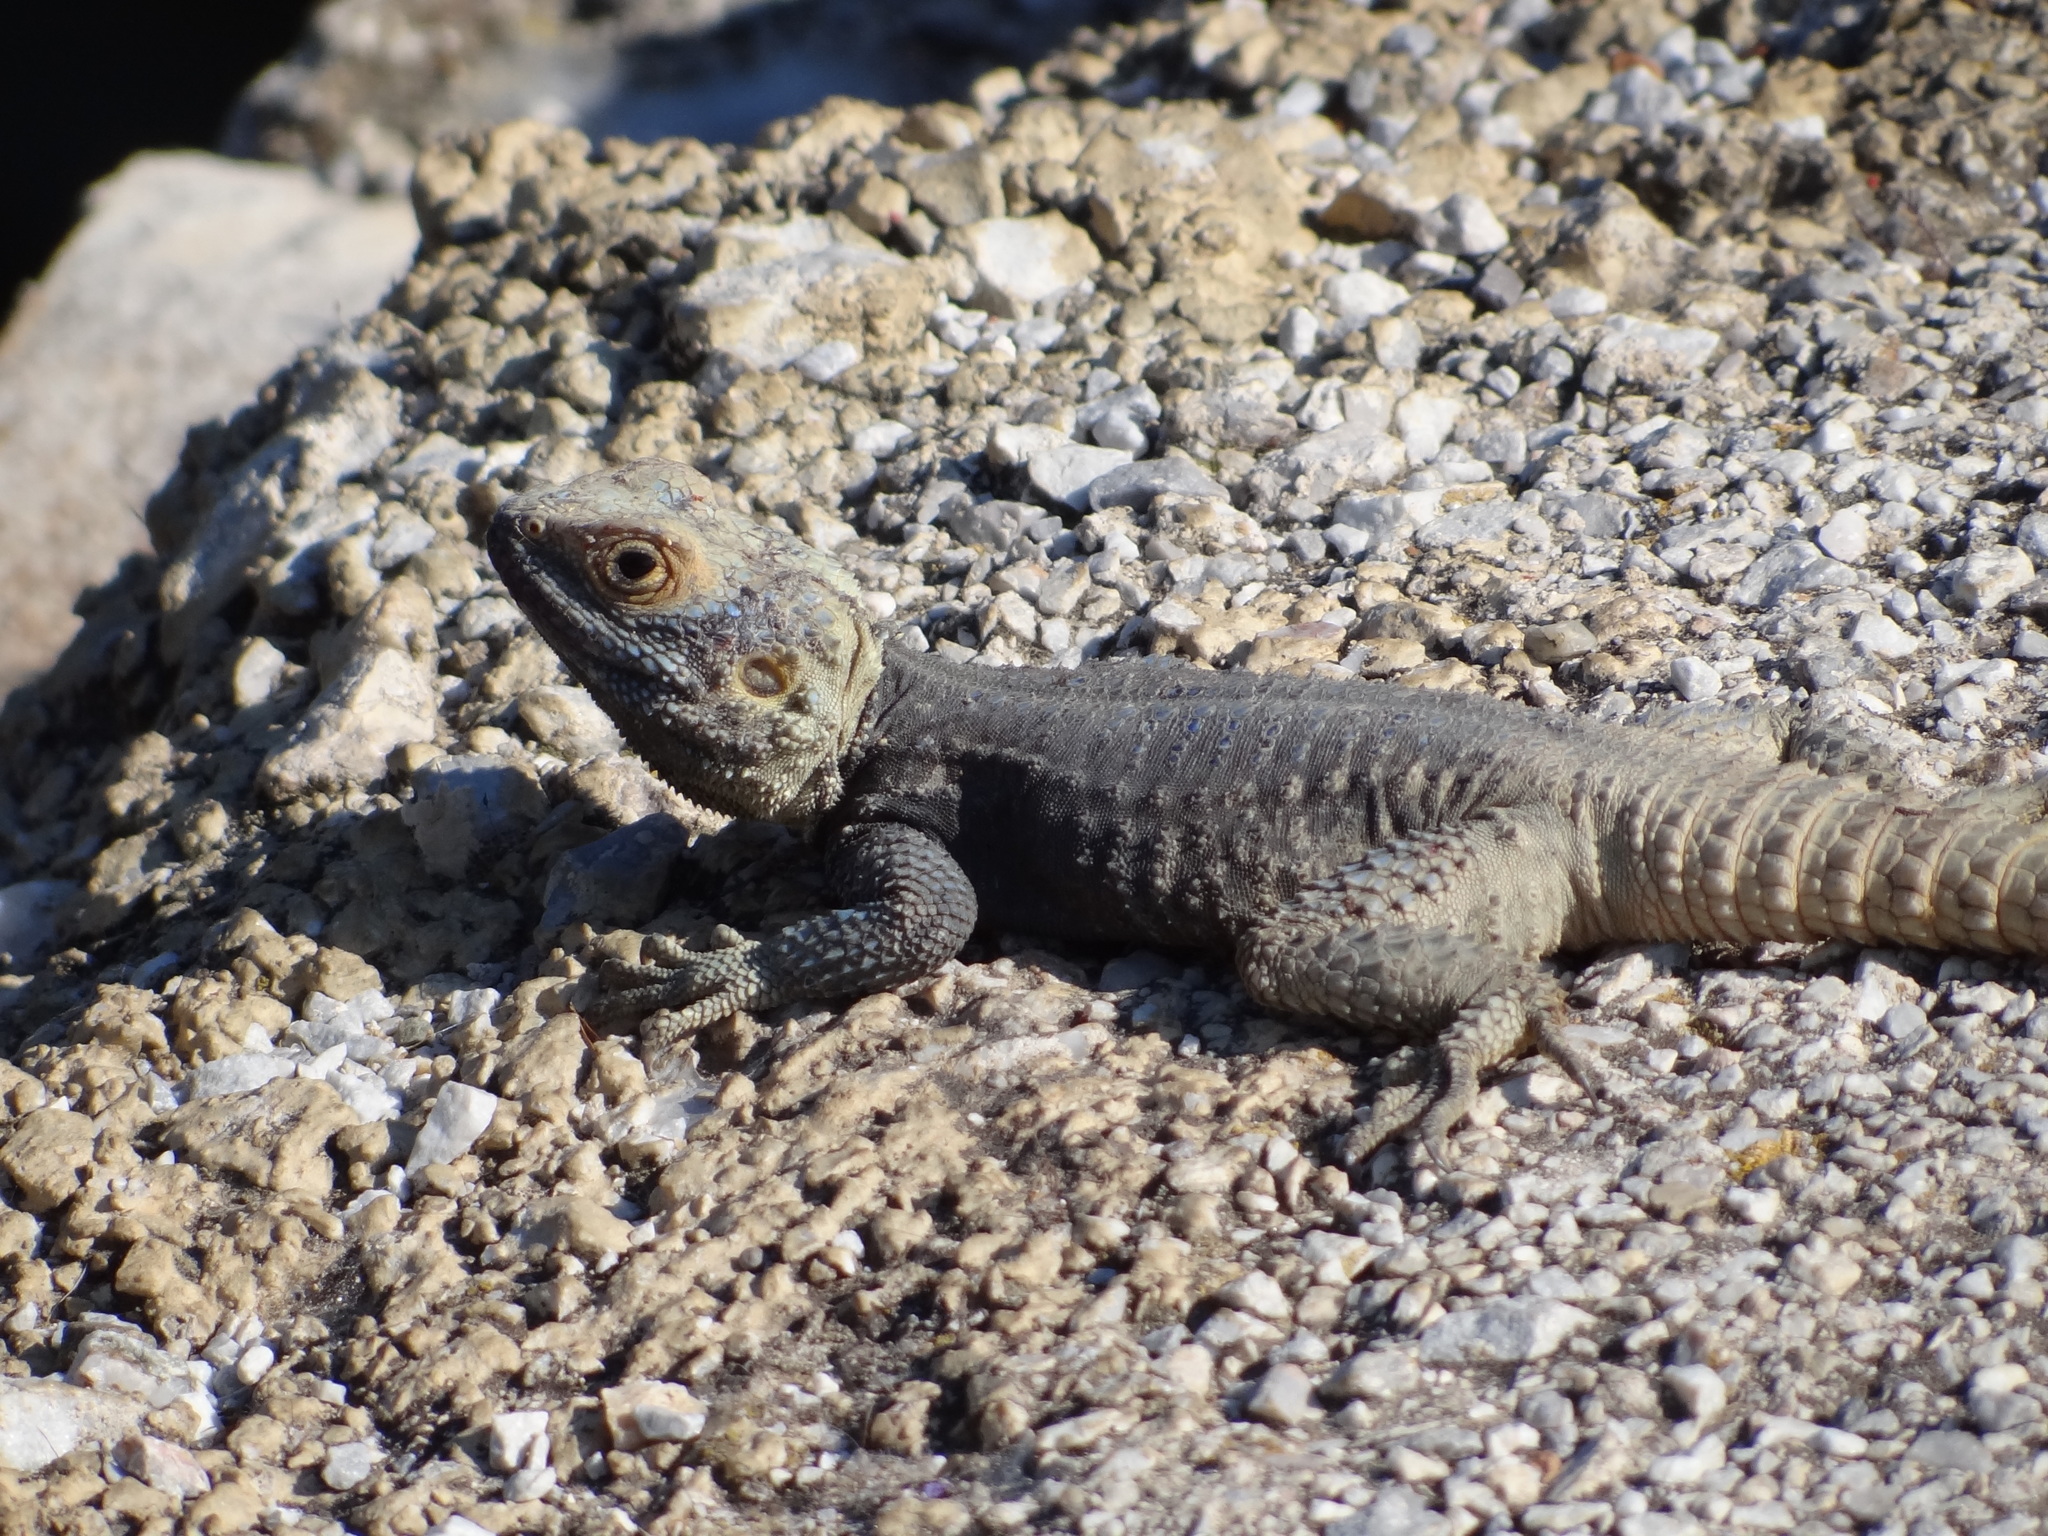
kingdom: Animalia
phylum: Chordata
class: Squamata
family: Agamidae
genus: Stellagama
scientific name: Stellagama stellio
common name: Starred agama
